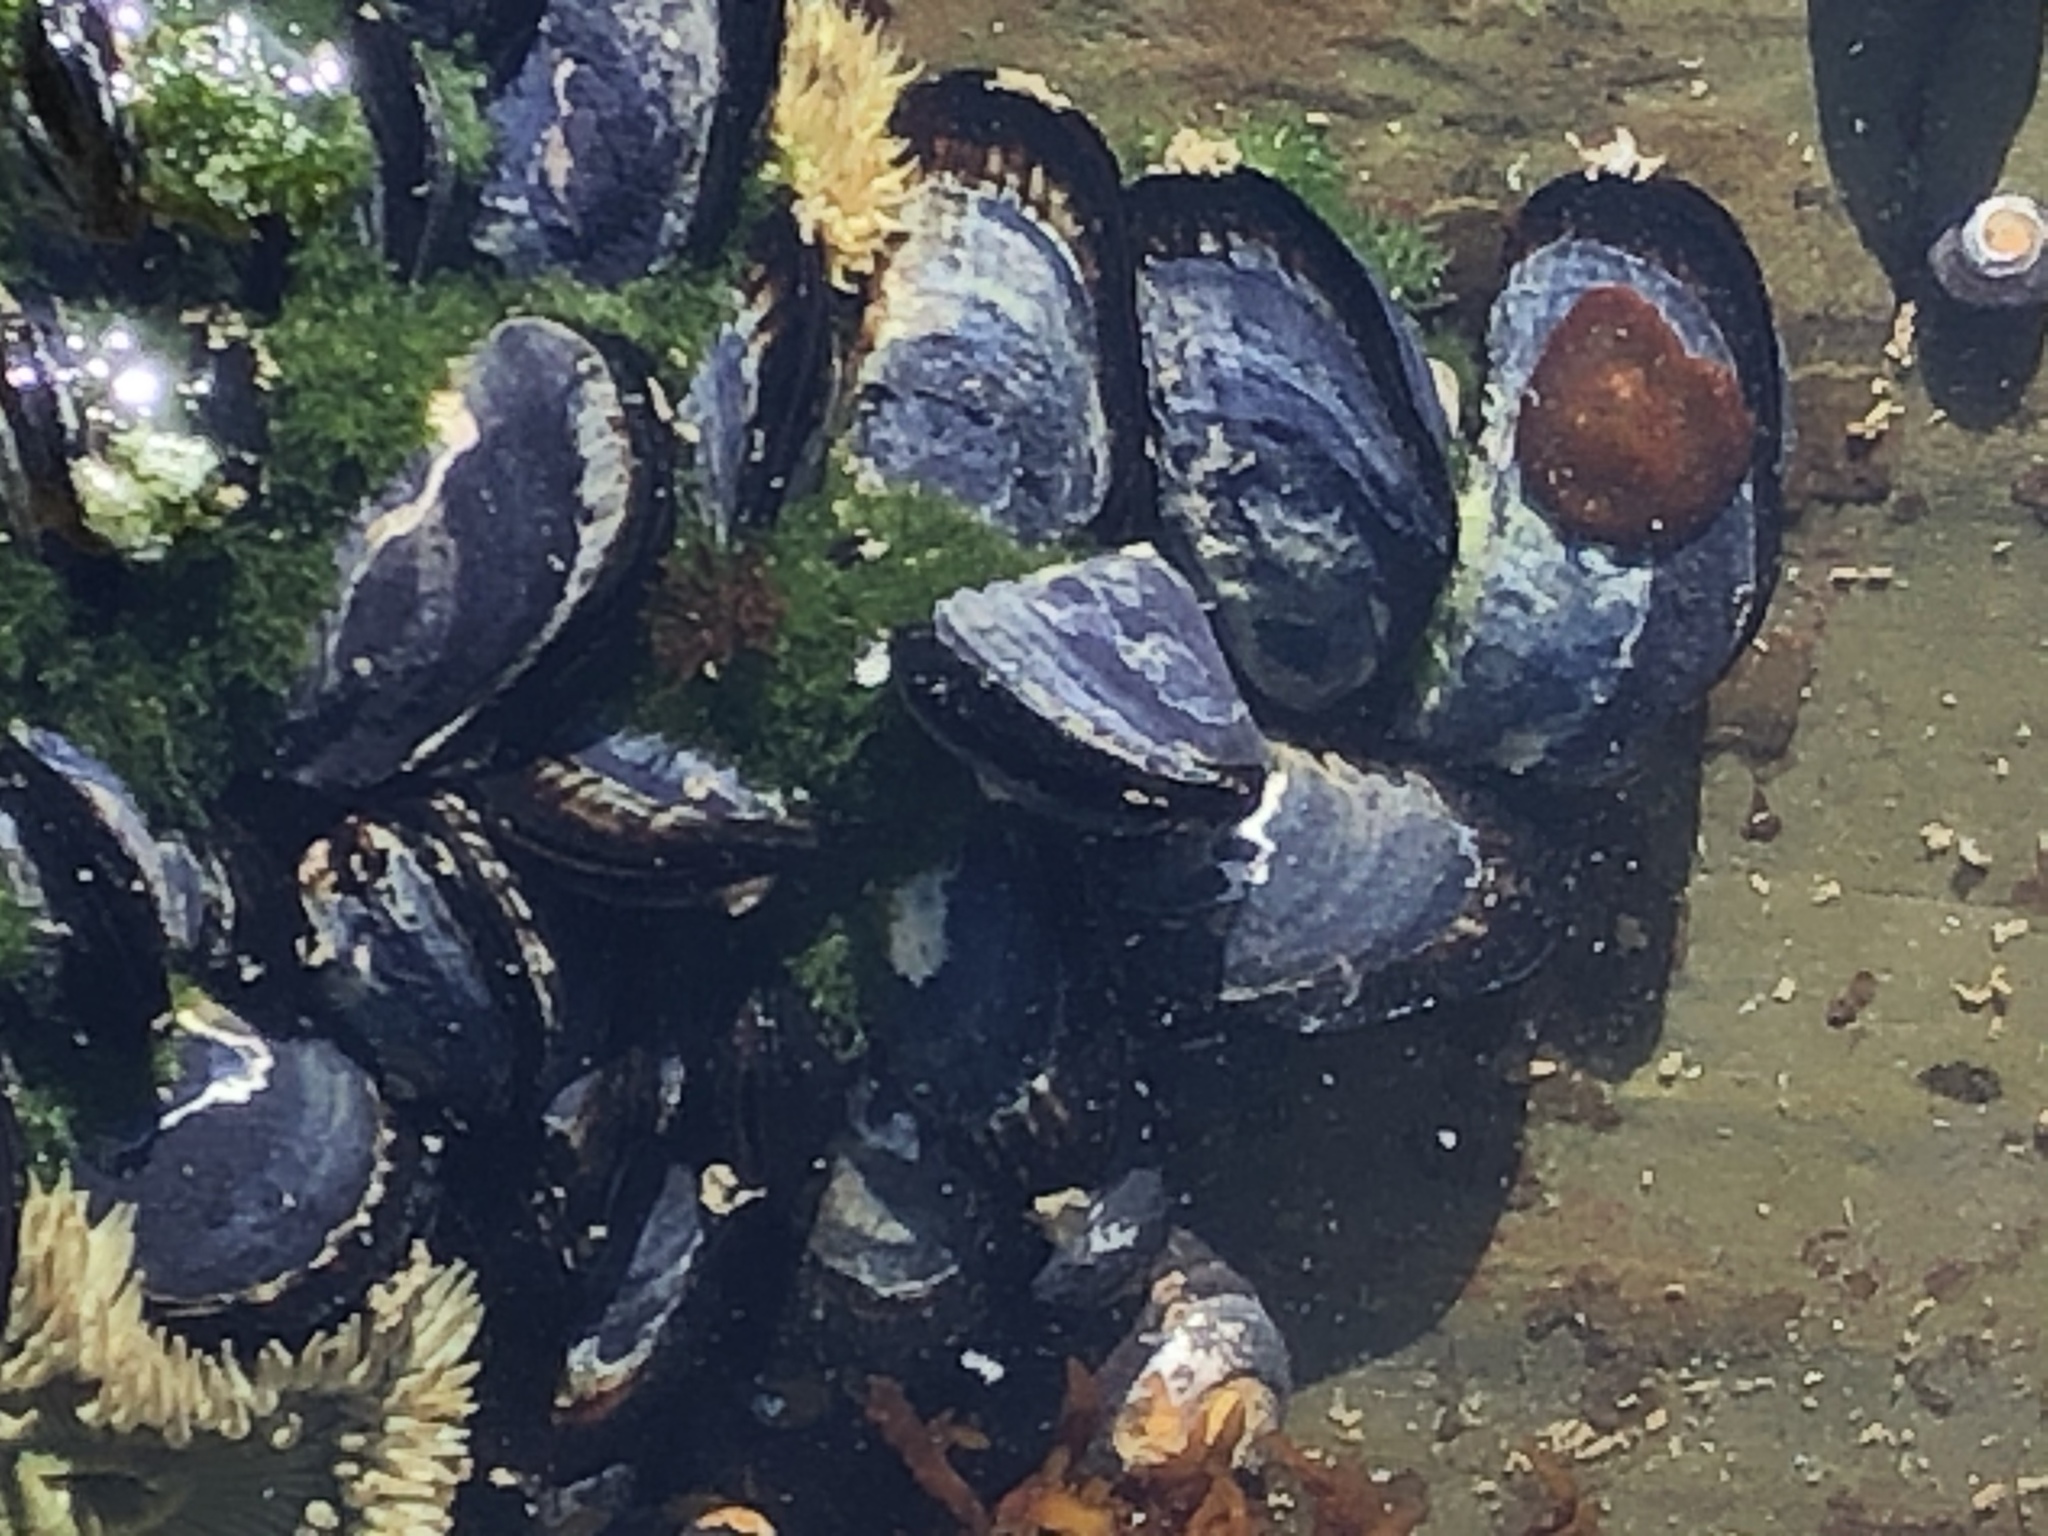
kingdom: Animalia
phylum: Mollusca
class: Bivalvia
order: Mytilida
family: Mytilidae
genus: Mytilus
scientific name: Mytilus californianus
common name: California mussel
